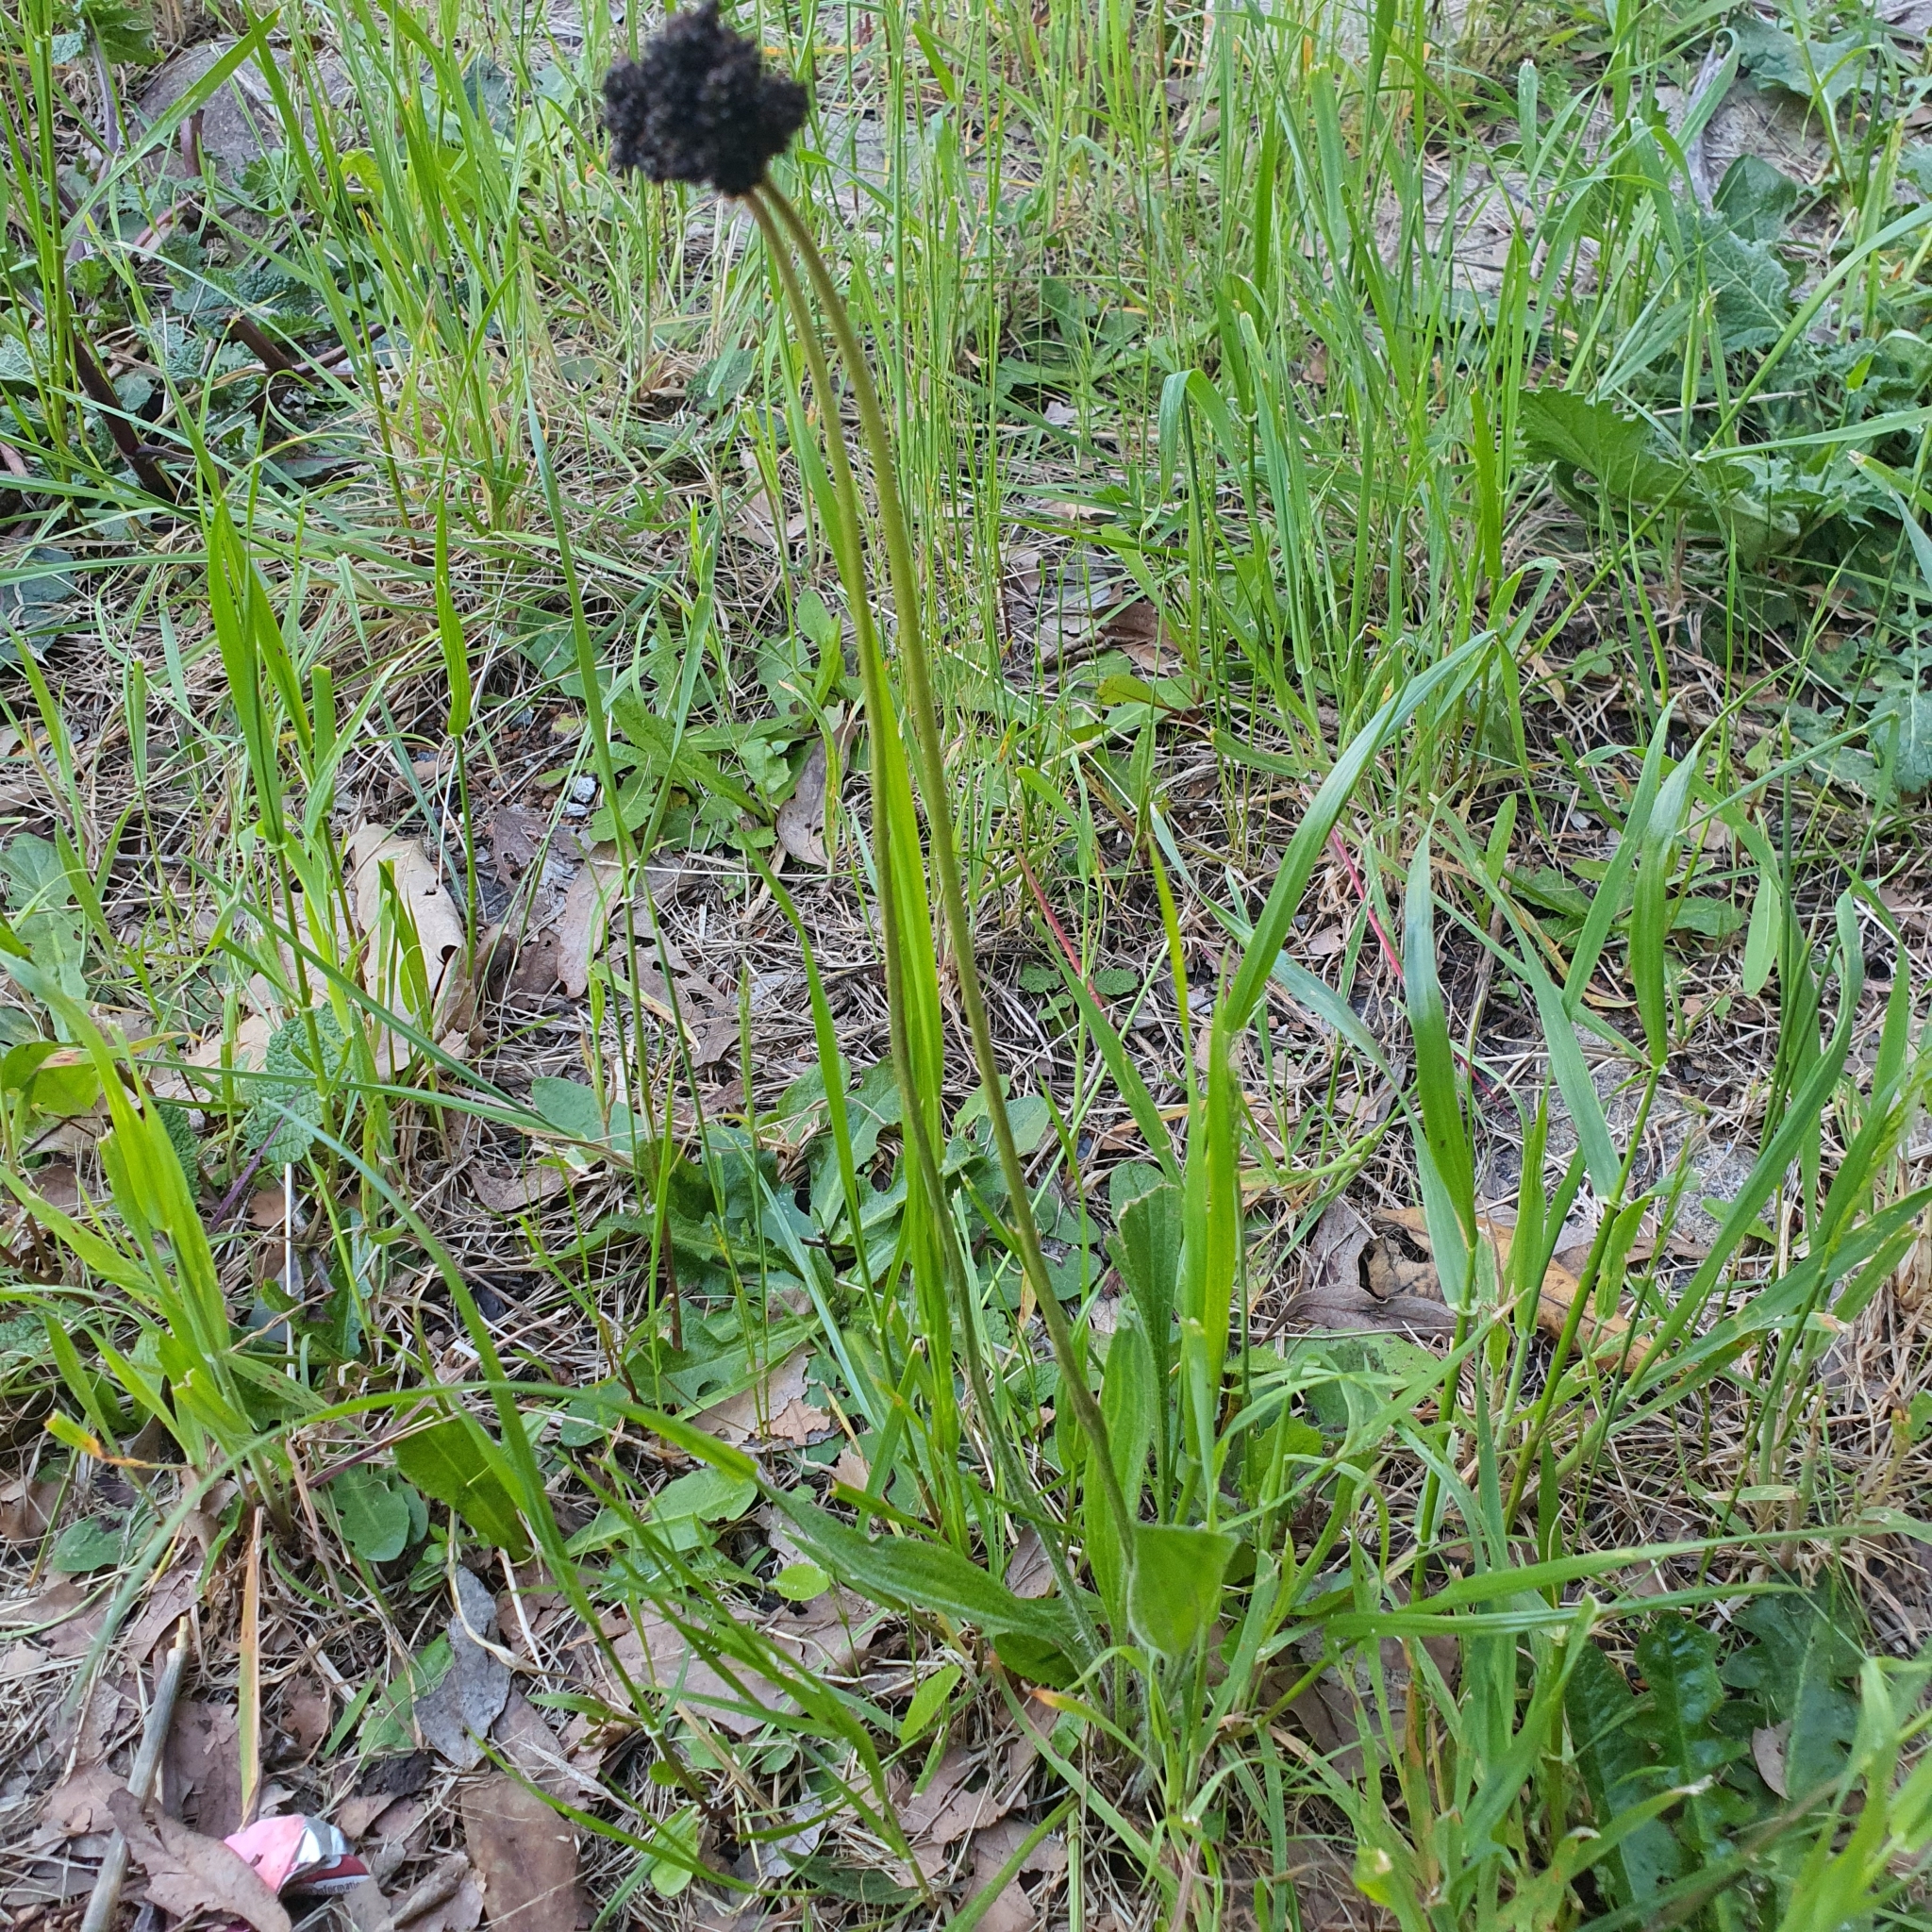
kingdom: Plantae
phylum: Tracheophyta
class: Magnoliopsida
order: Lamiales
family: Plantaginaceae
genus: Plantago
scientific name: Plantago lanceolata
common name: Ribwort plantain
